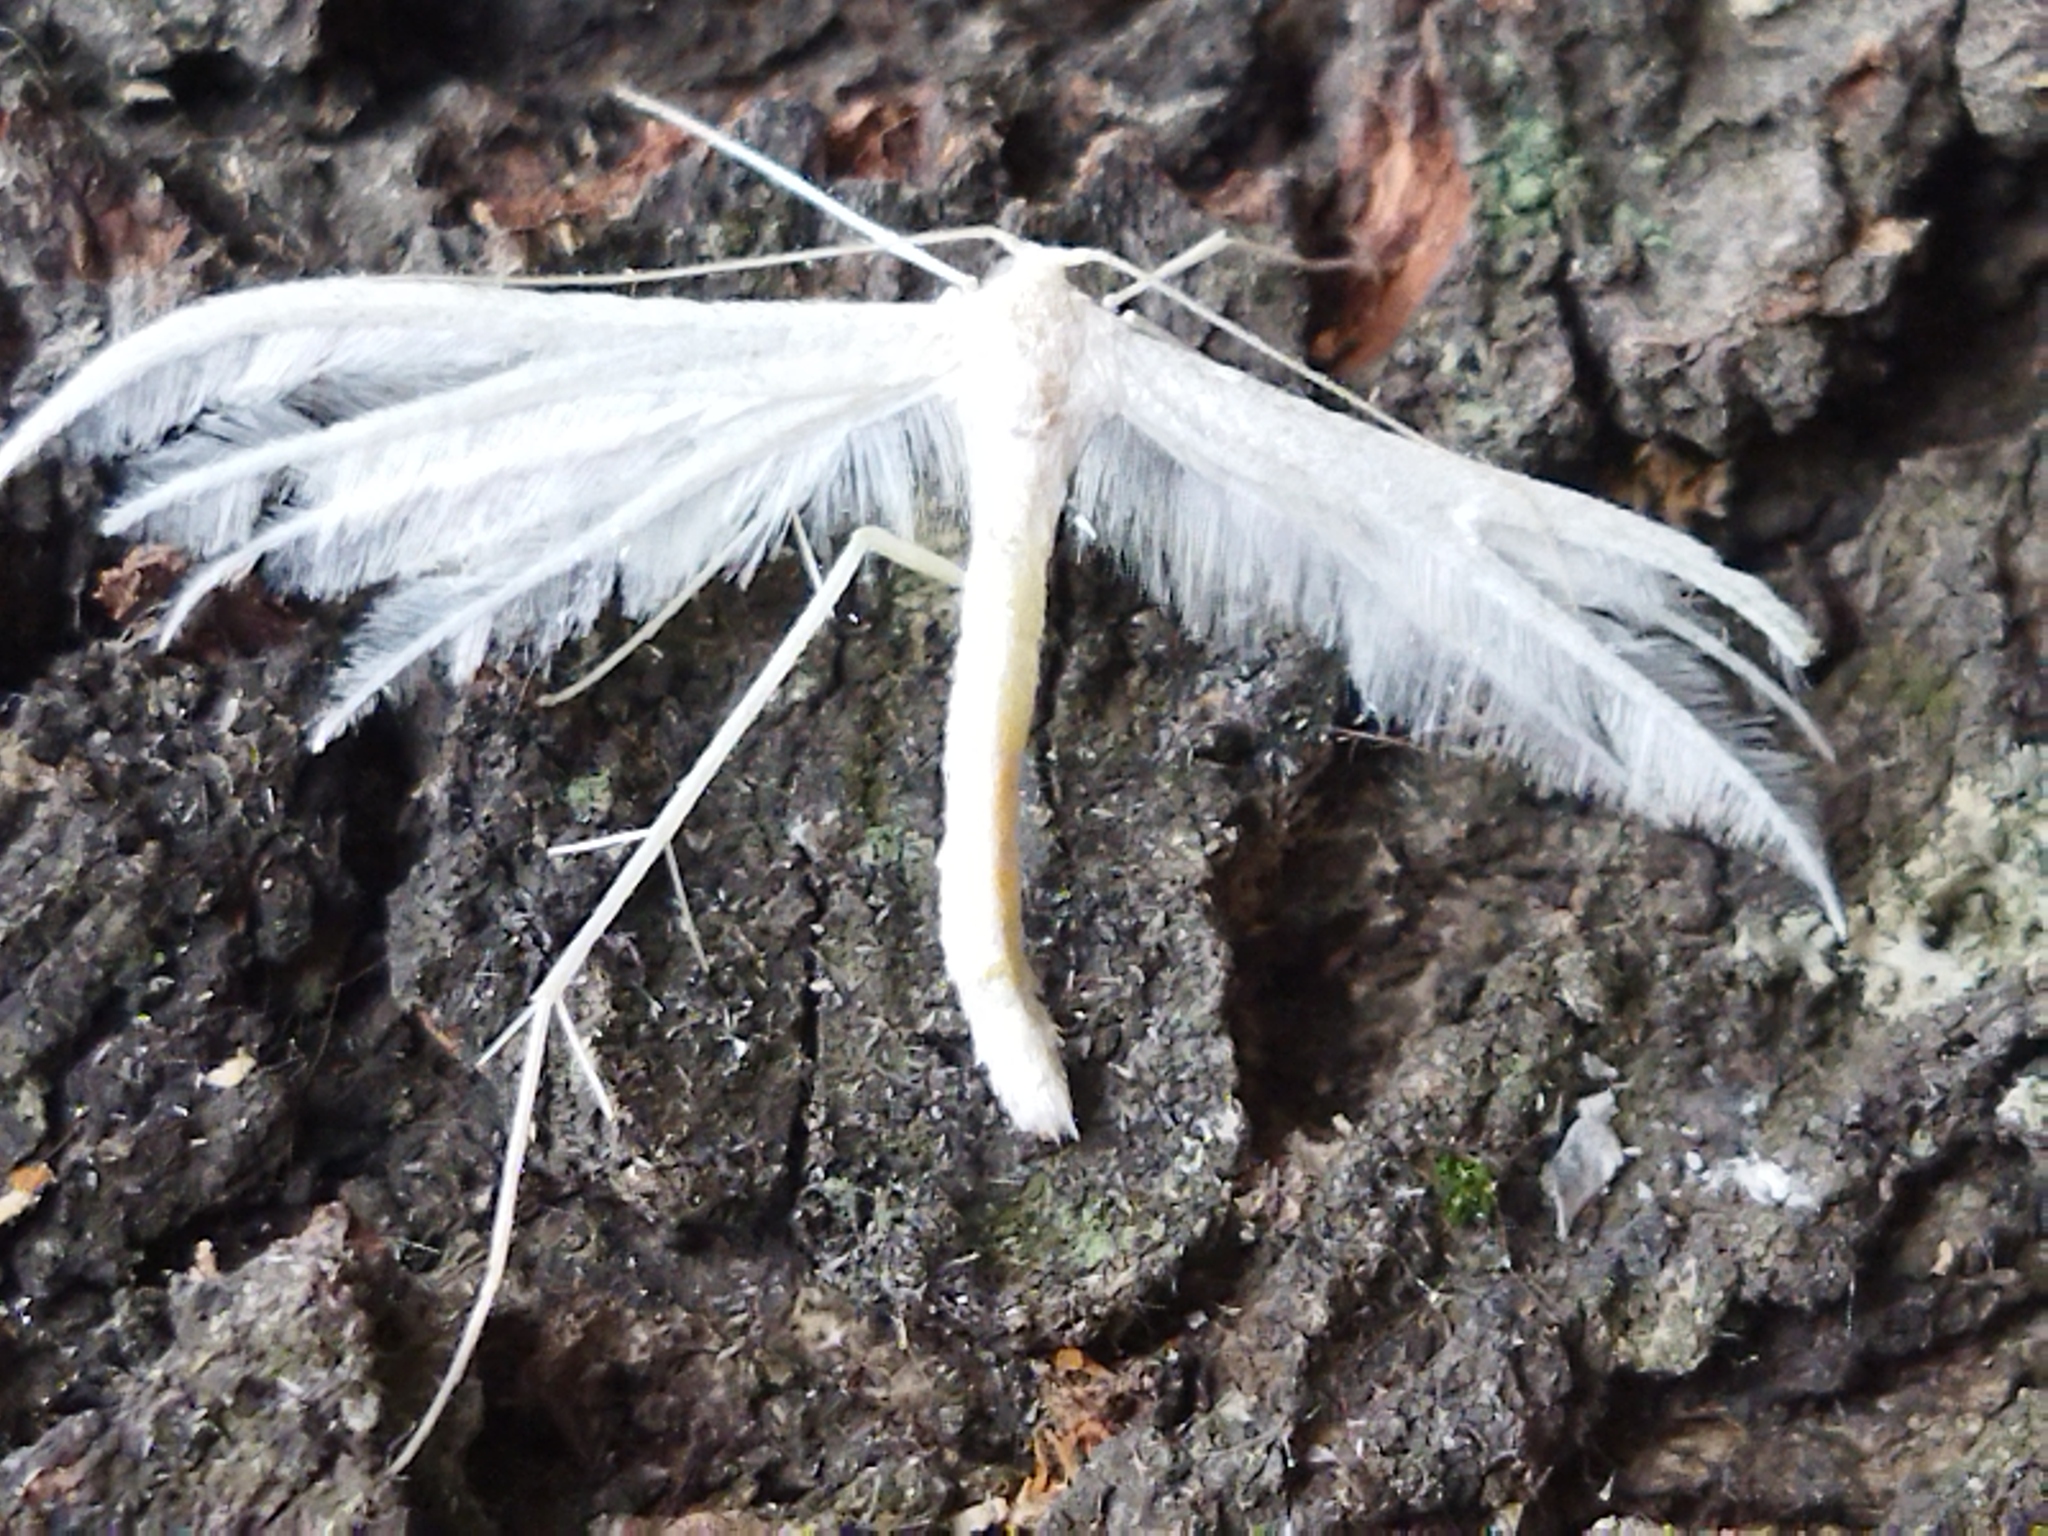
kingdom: Animalia
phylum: Arthropoda
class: Insecta
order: Lepidoptera
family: Pterophoridae
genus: Pterophorus
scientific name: Pterophorus pentadactyla
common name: White plume moth
